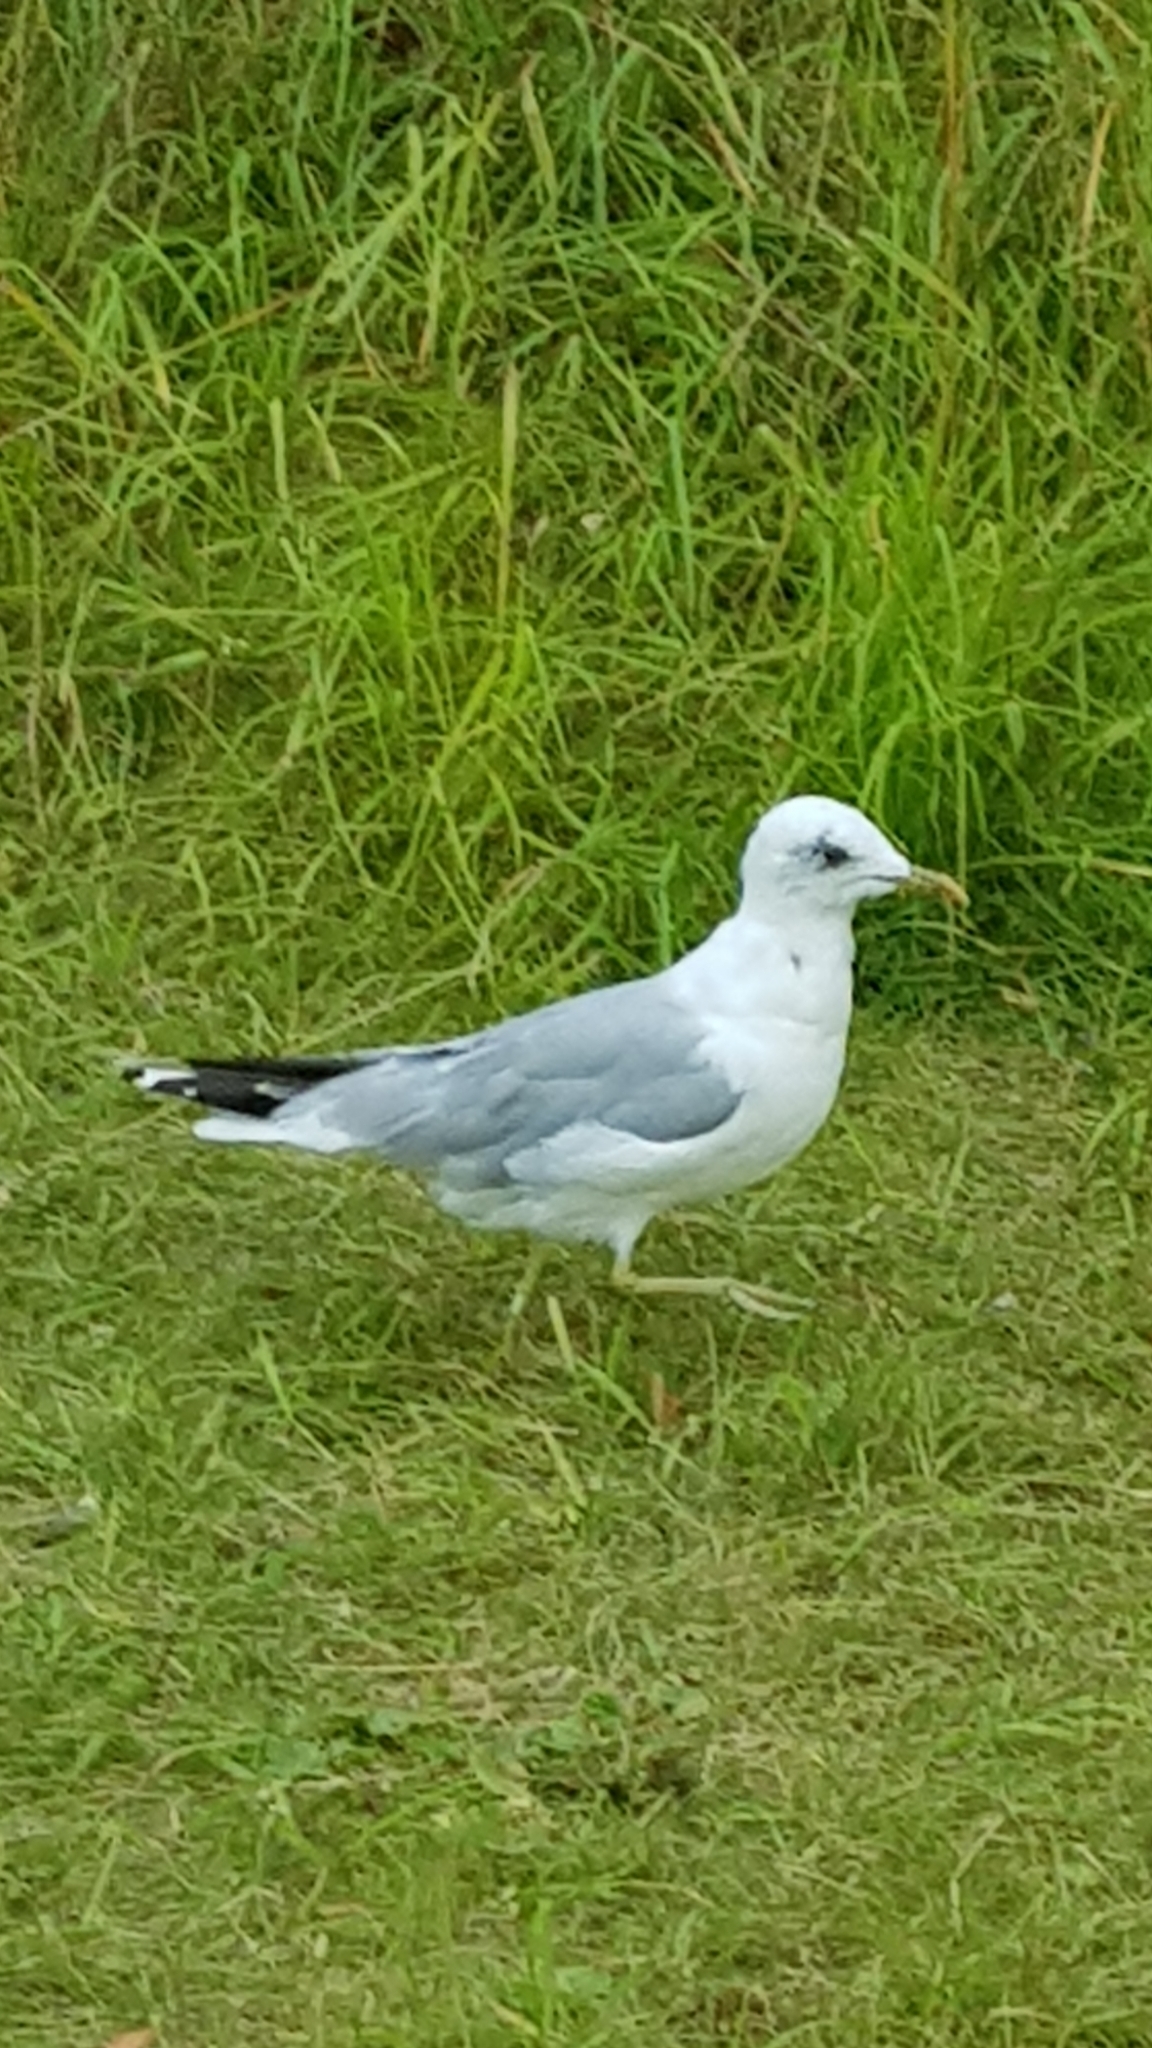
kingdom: Animalia
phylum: Chordata
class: Aves
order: Charadriiformes
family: Laridae
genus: Larus
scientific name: Larus canus
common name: Mew gull
